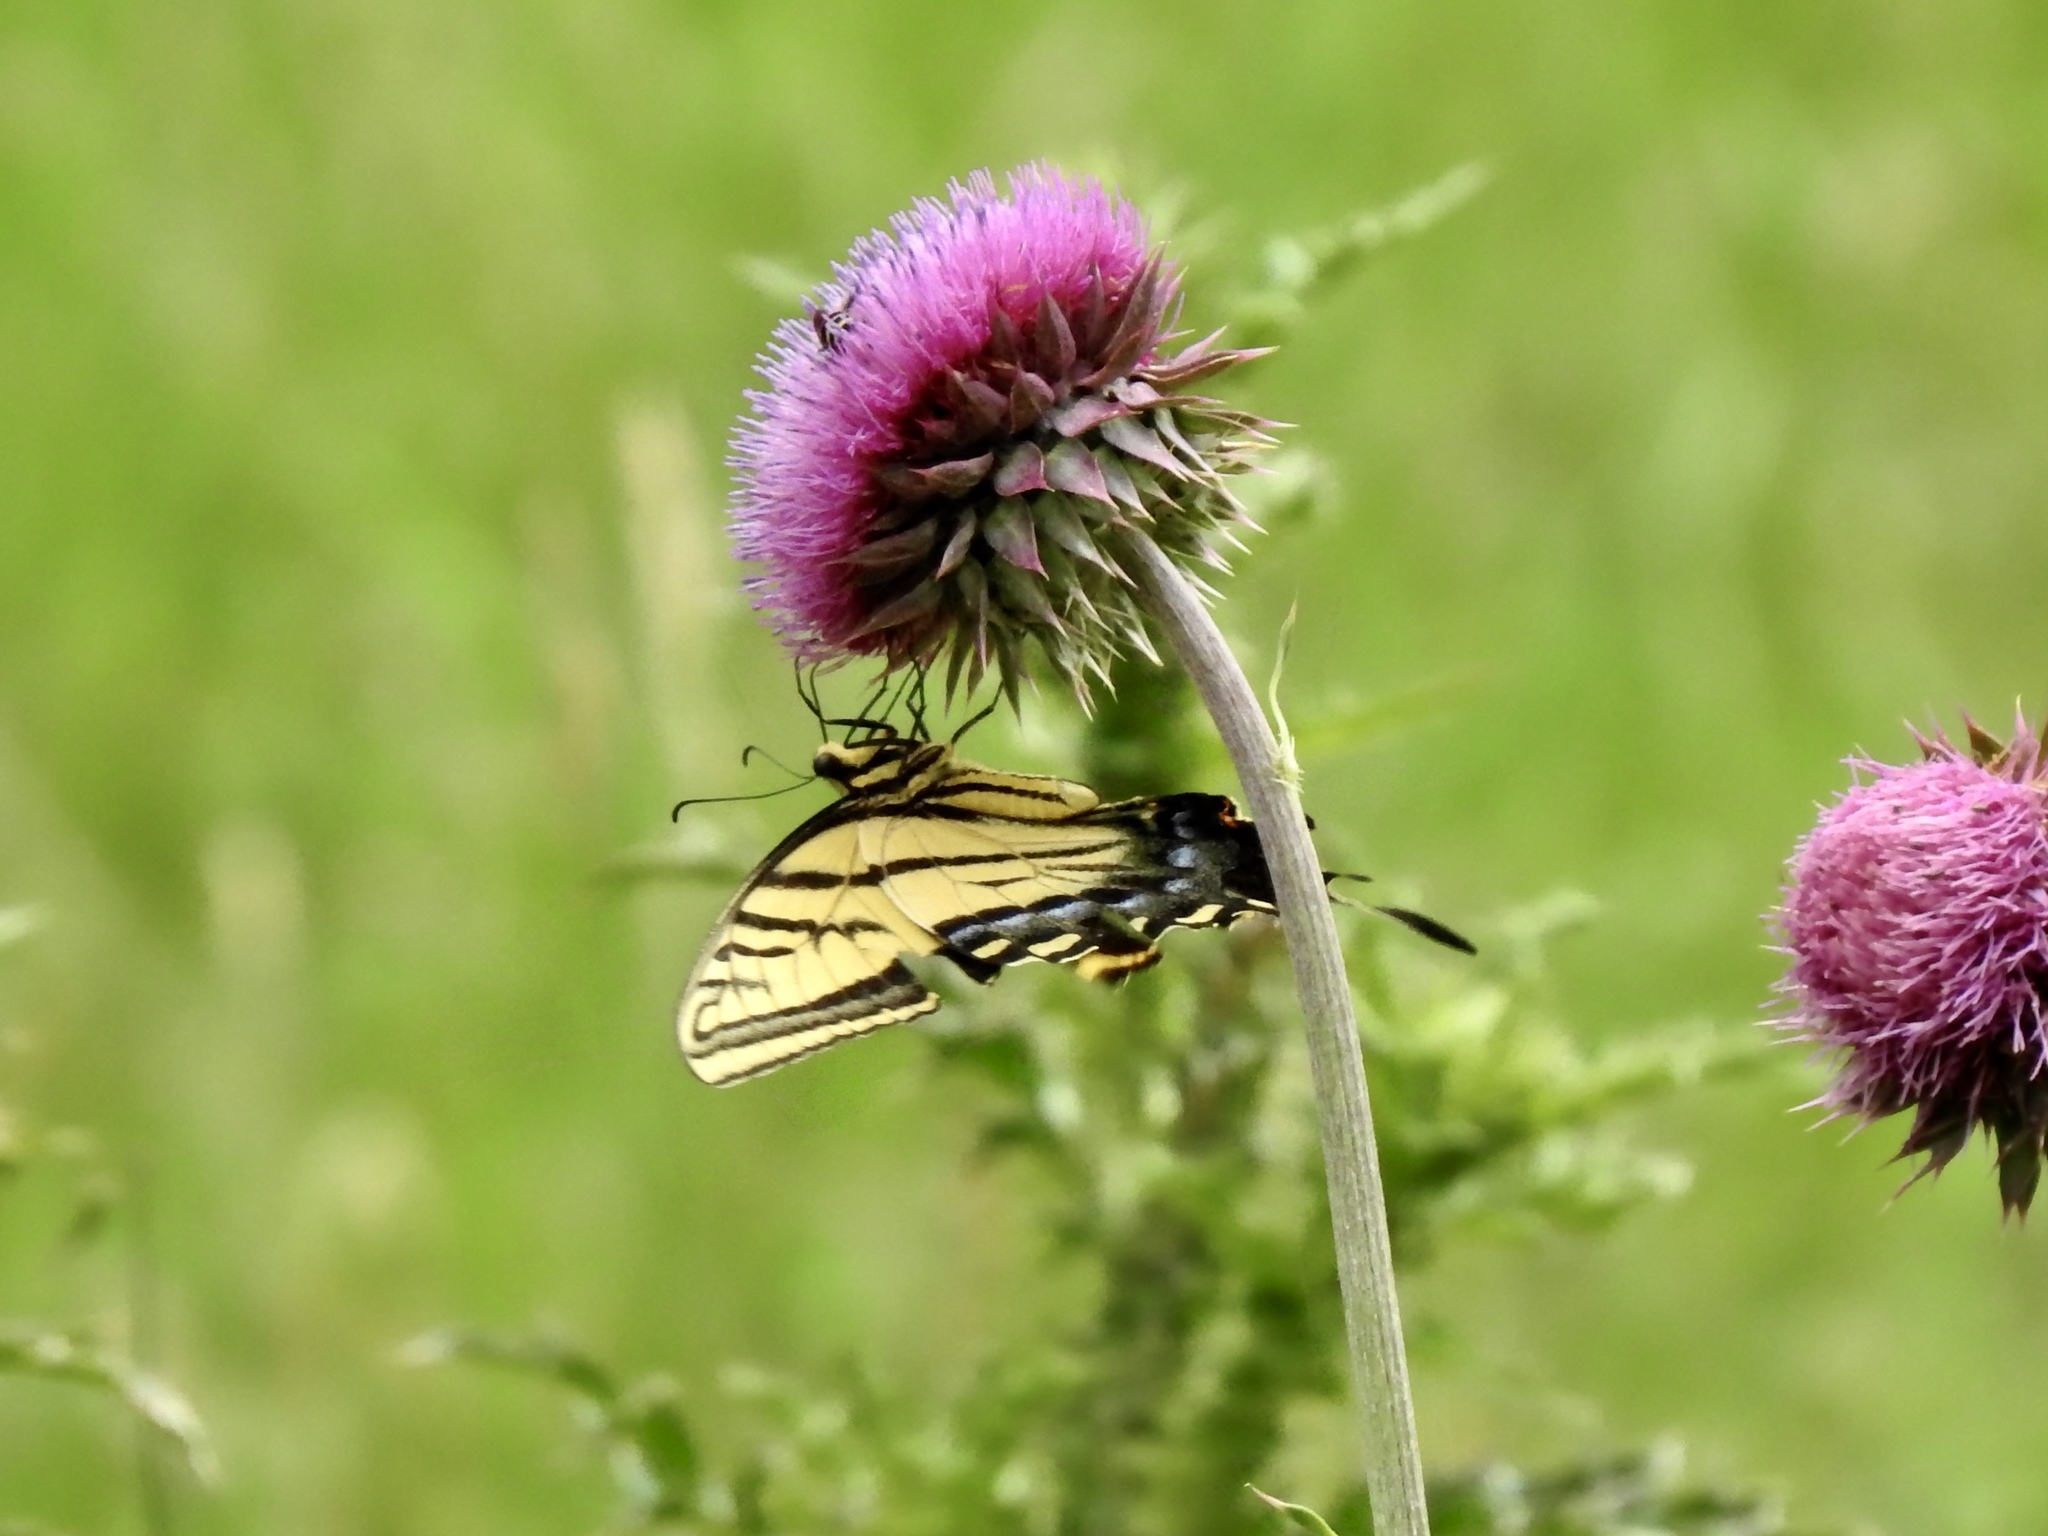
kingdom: Animalia
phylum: Arthropoda
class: Insecta
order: Lepidoptera
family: Papilionidae
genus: Papilio
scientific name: Papilio multicaudata
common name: Two-tailed tiger swallowtail
